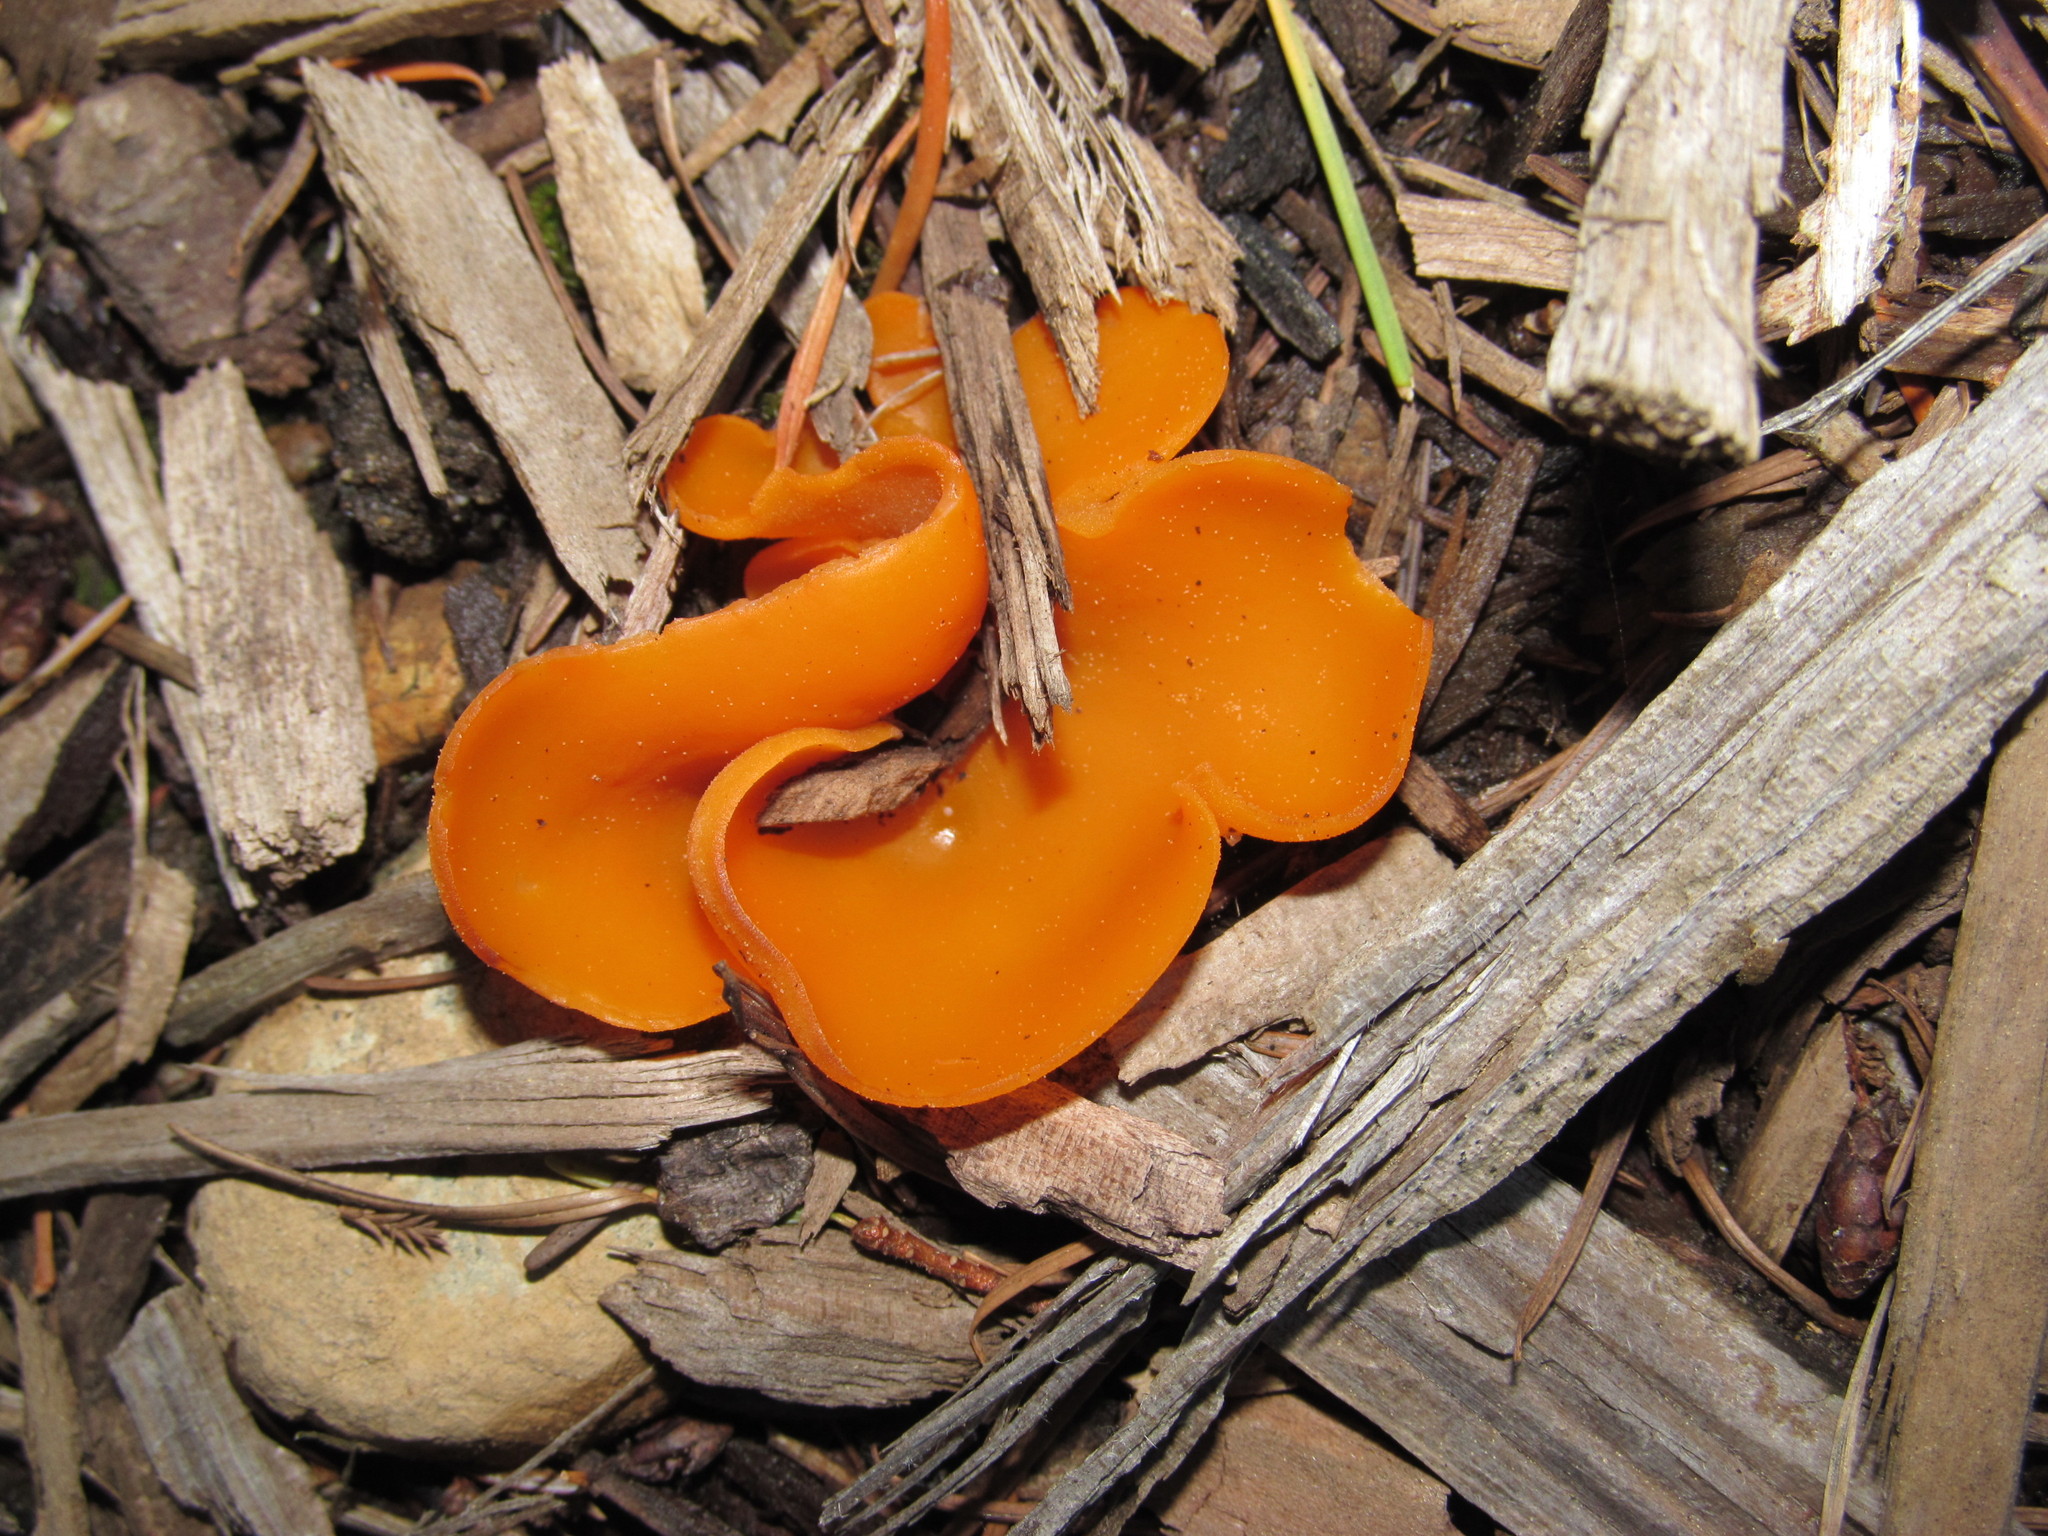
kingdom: Fungi
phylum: Ascomycota
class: Pezizomycetes
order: Pezizales
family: Pyronemataceae
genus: Aleuria
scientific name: Aleuria aurantia
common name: Orange peel fungus
